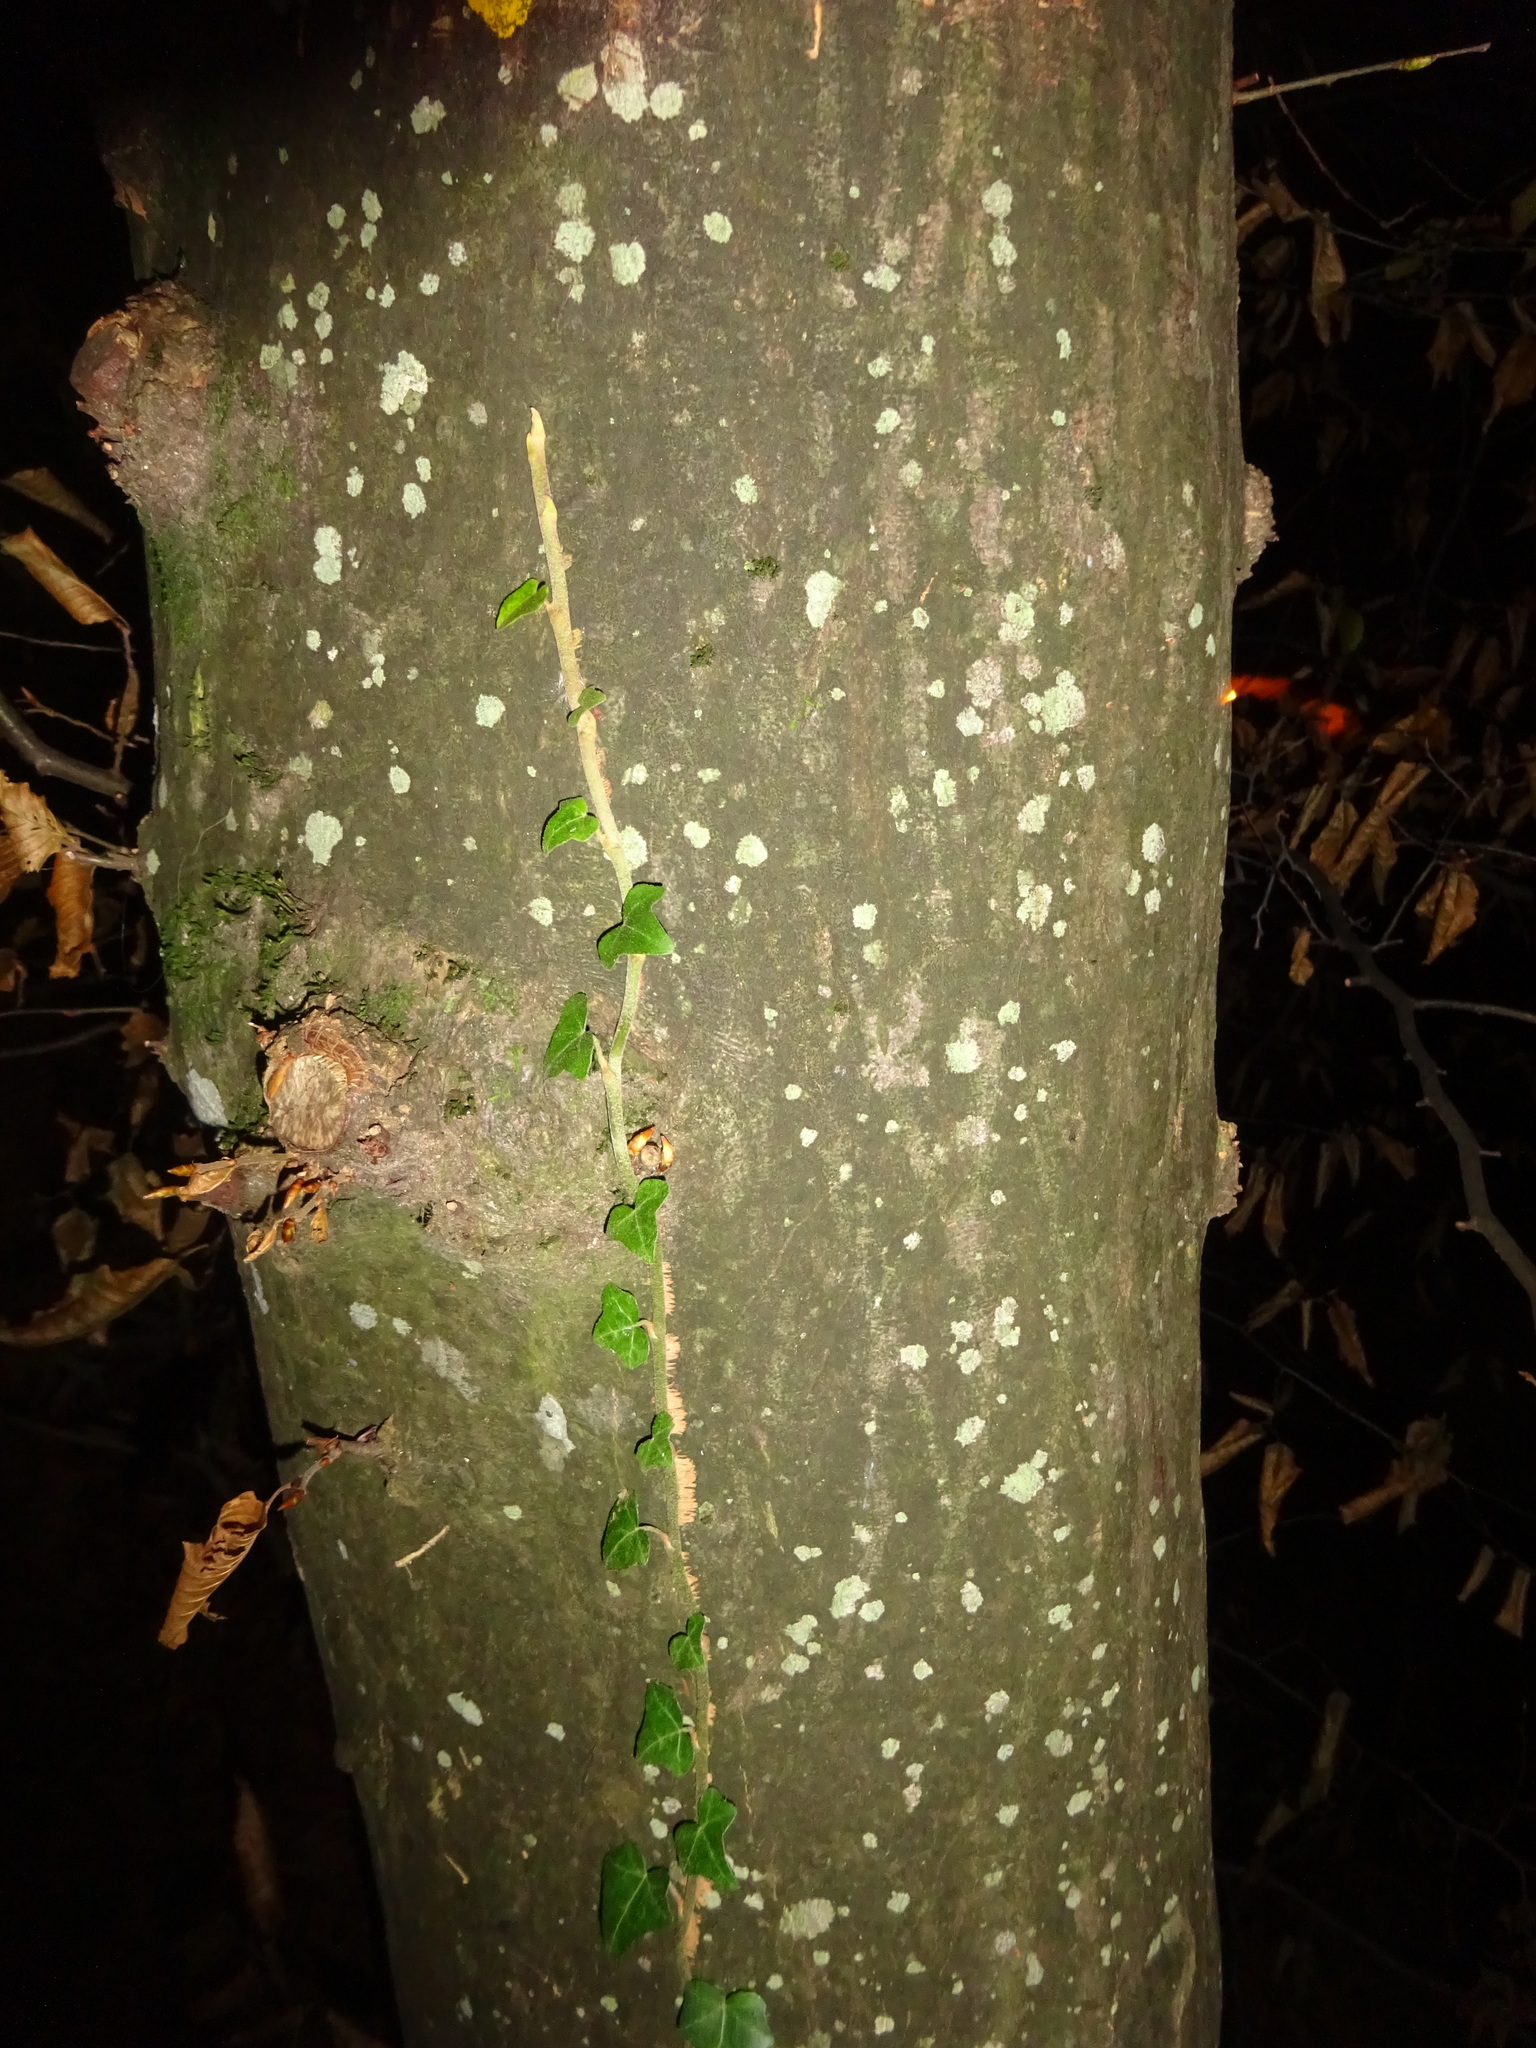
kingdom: Plantae
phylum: Tracheophyta
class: Magnoliopsida
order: Fagales
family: Betulaceae
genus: Carpinus
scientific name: Carpinus betulus
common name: Hornbeam
